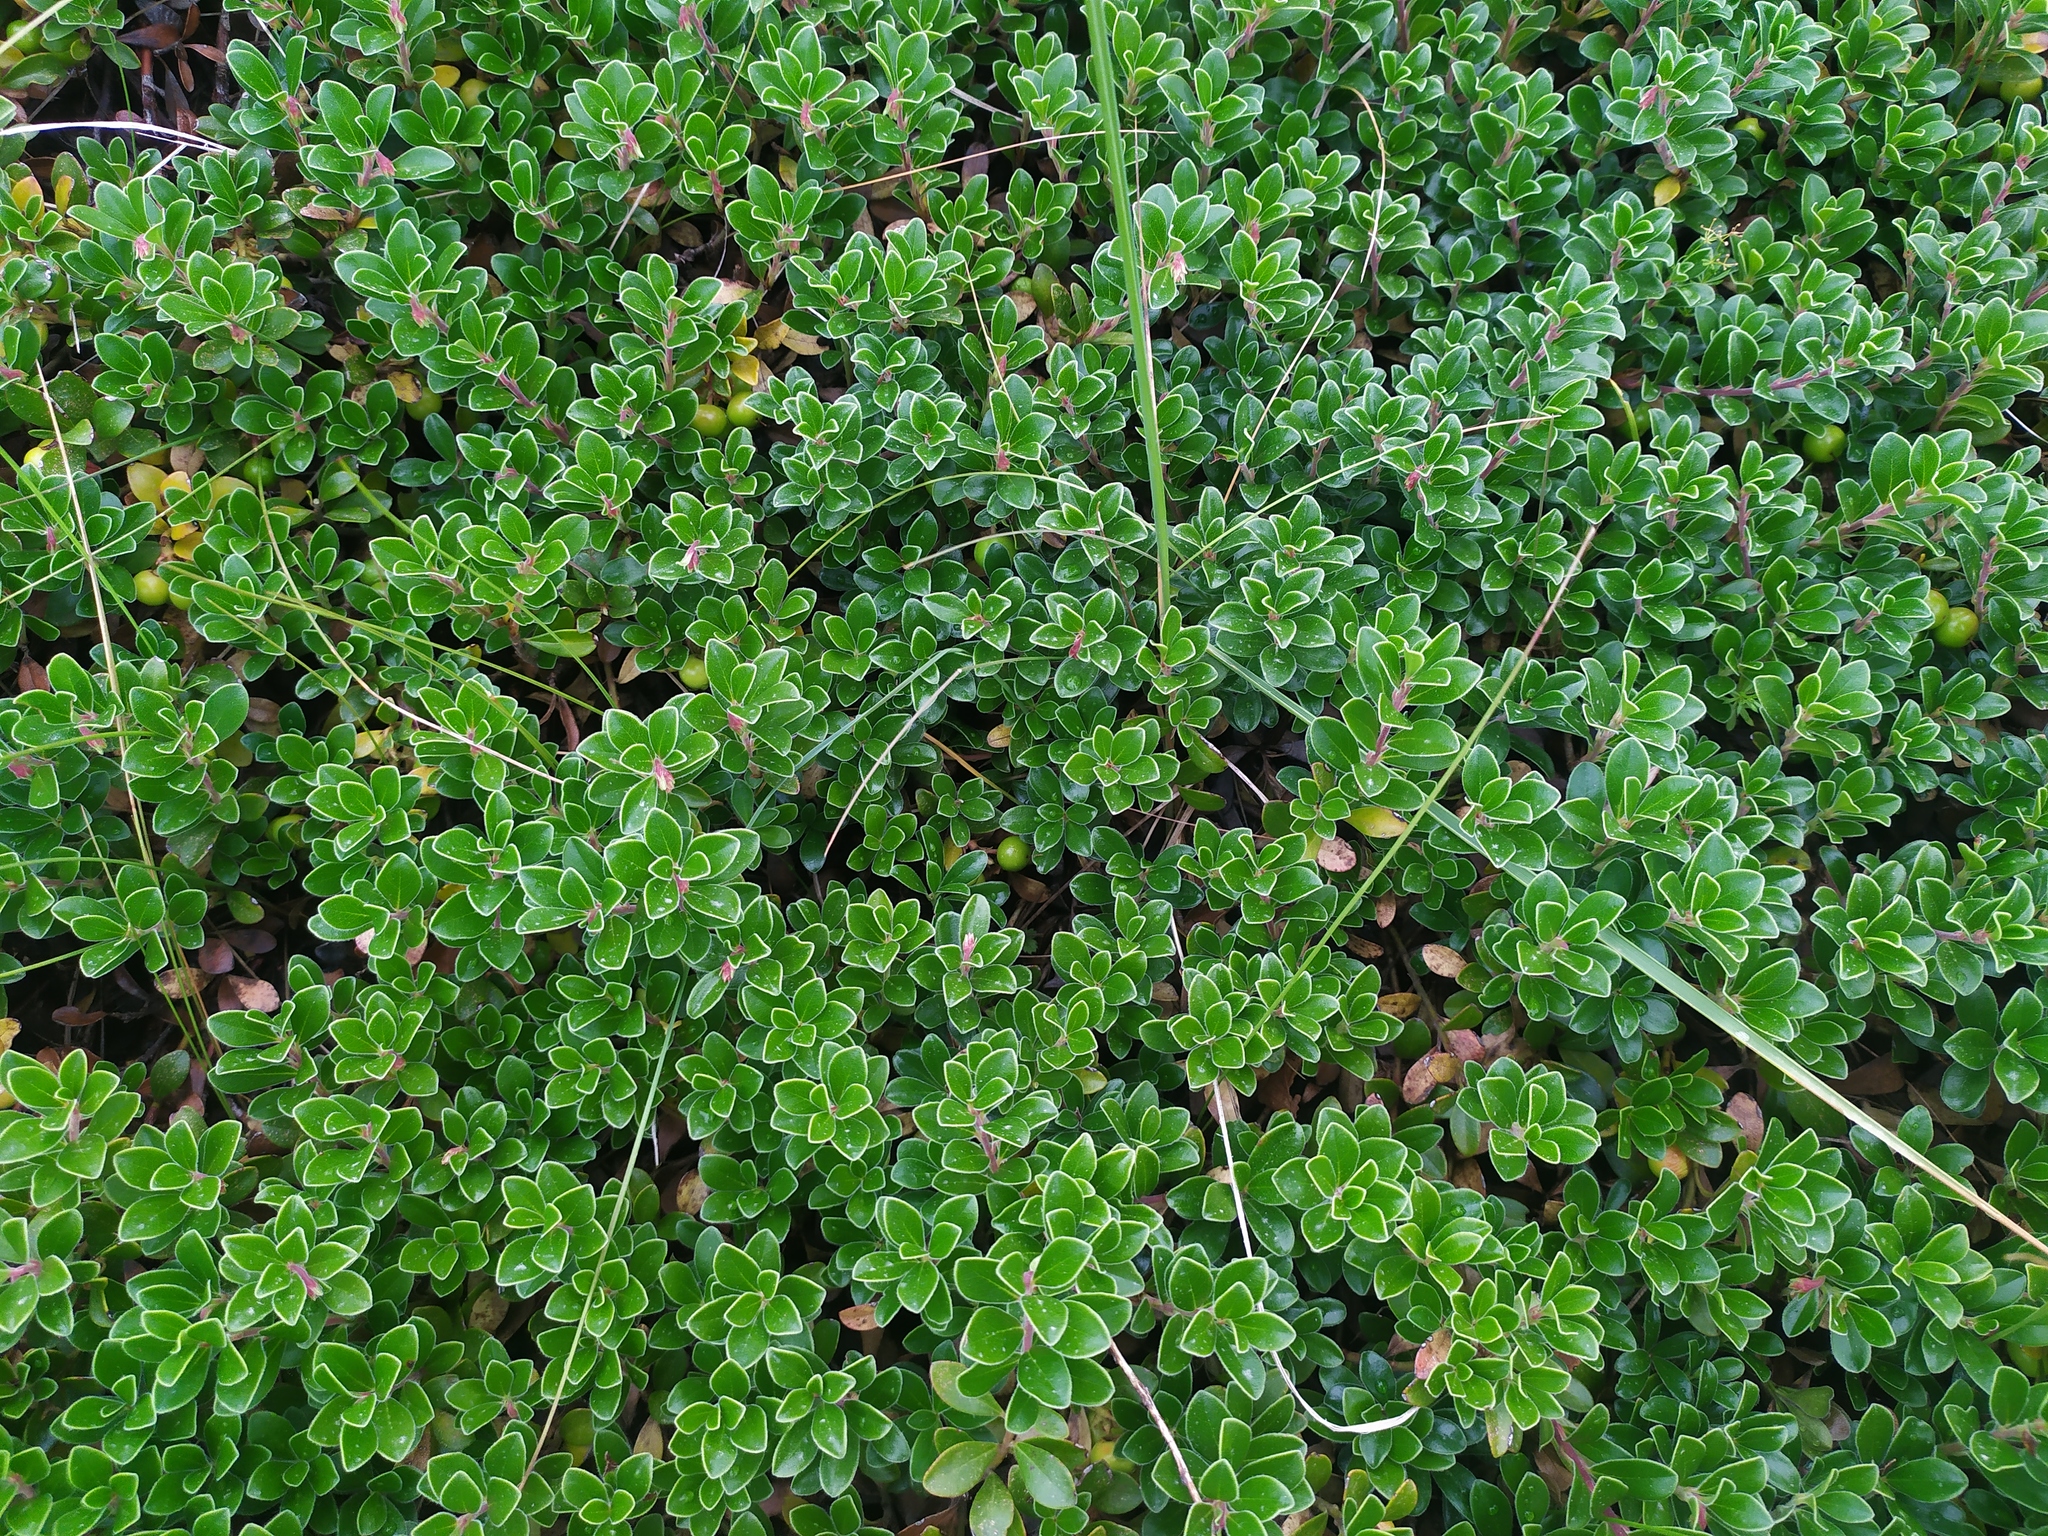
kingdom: Plantae
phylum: Tracheophyta
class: Magnoliopsida
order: Ericales
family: Ericaceae
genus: Arctostaphylos
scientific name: Arctostaphylos uva-ursi
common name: Bearberry
